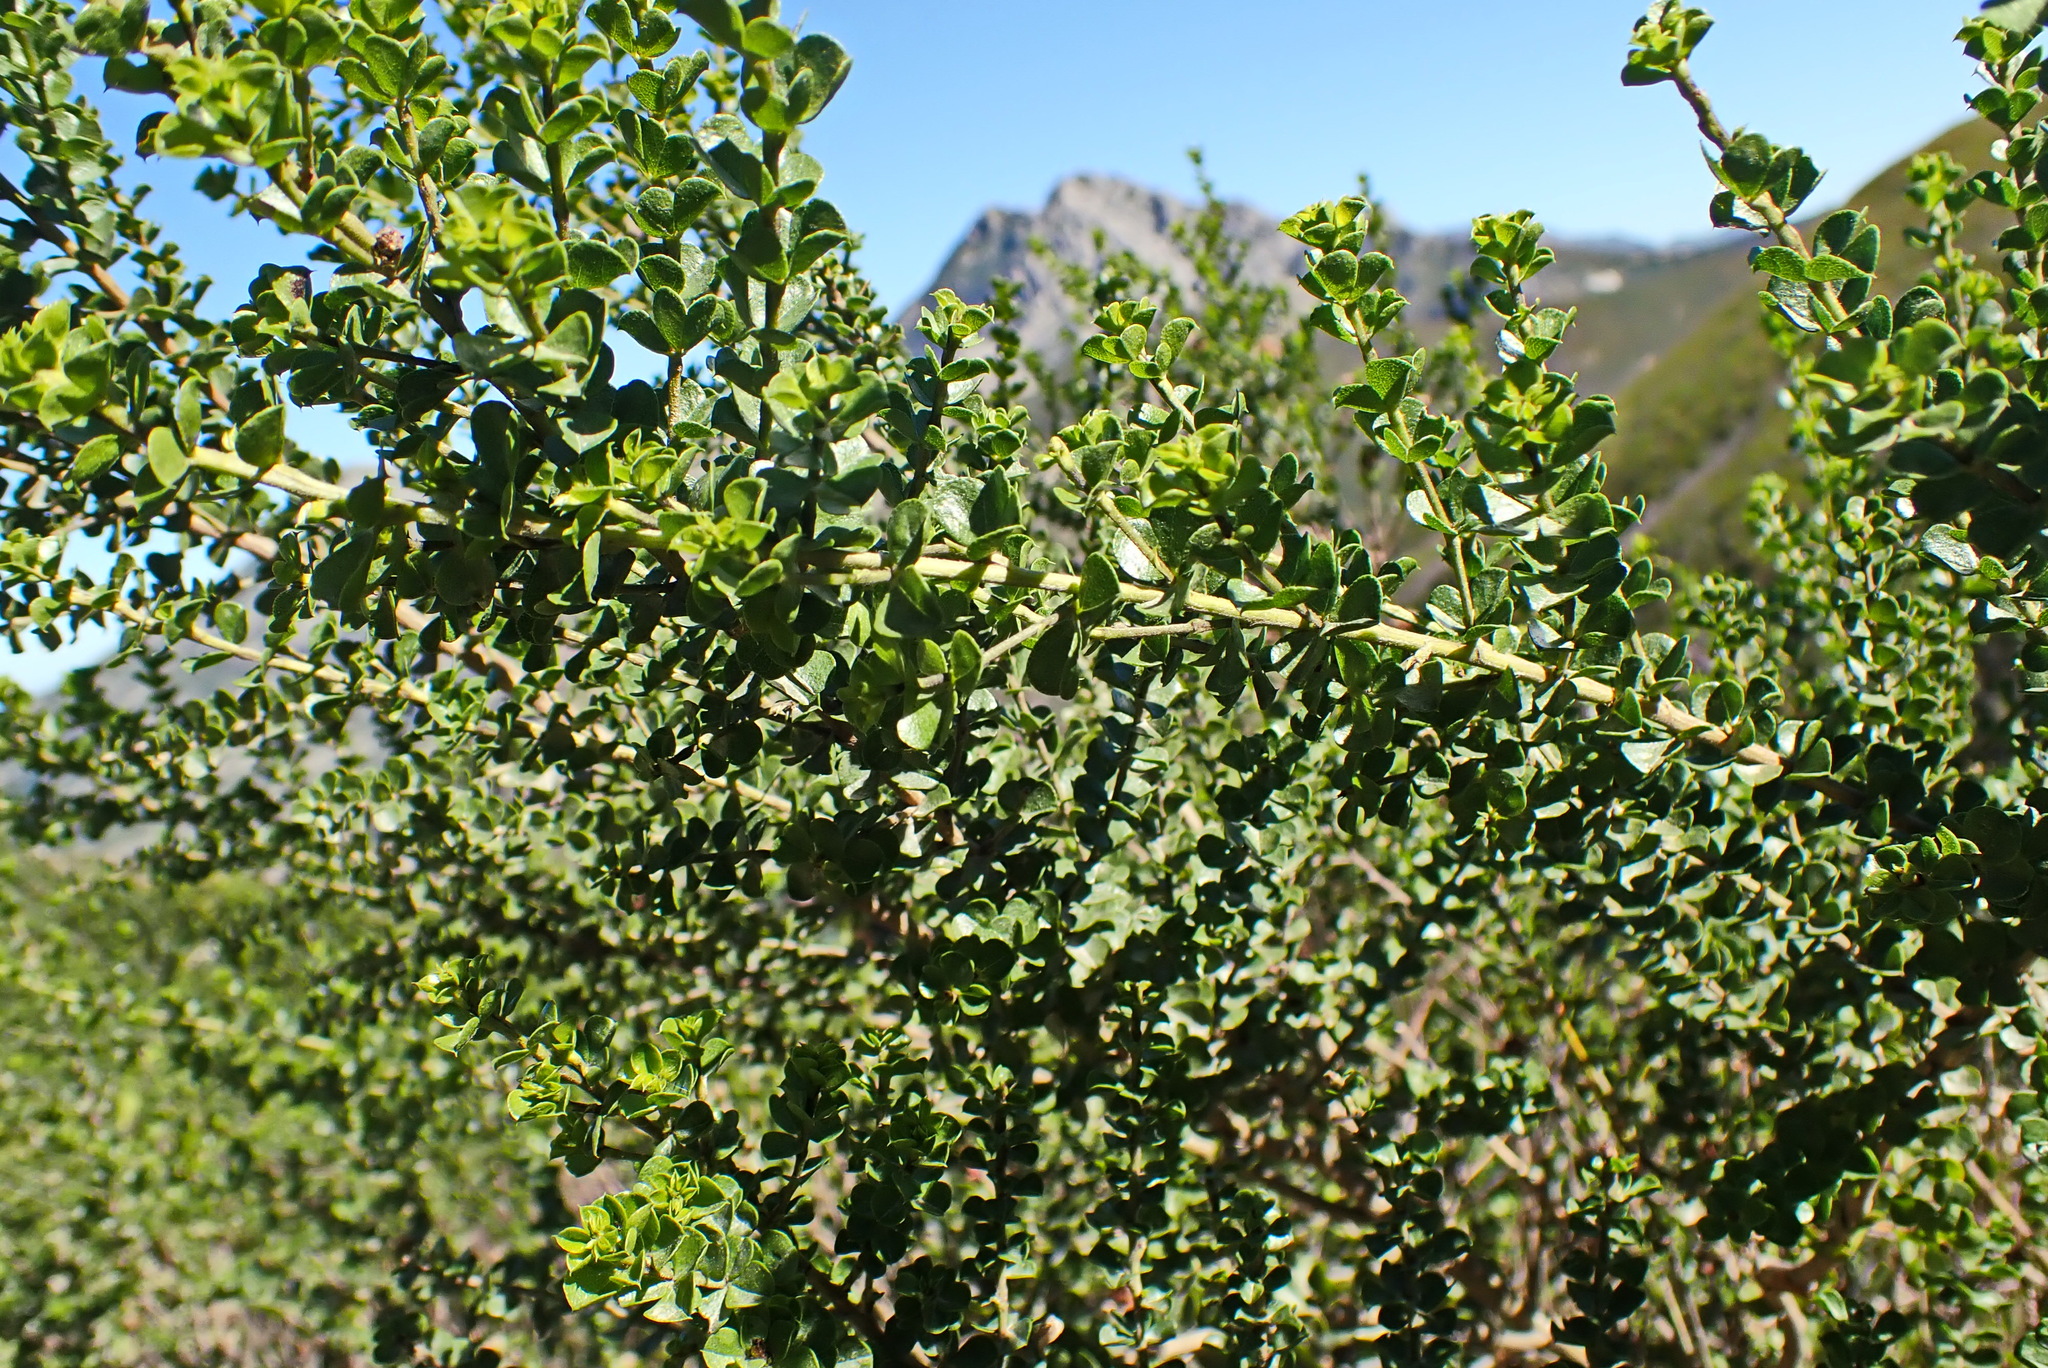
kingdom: Plantae
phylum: Tracheophyta
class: Magnoliopsida
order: Fabales
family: Fabaceae
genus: Psoralea
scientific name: Psoralea stachyera
